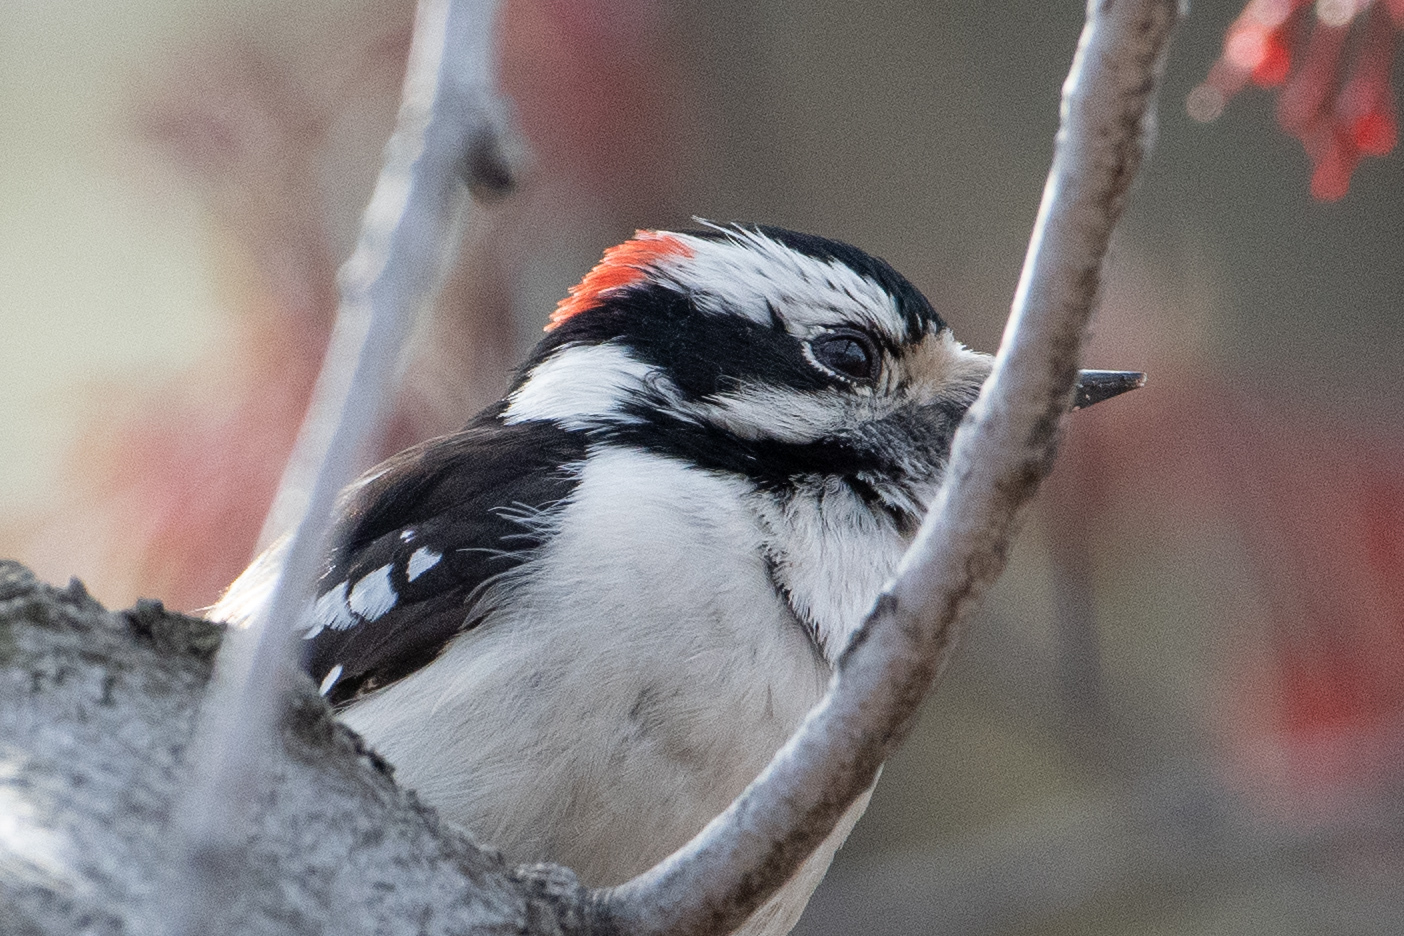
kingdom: Animalia
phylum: Chordata
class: Aves
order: Piciformes
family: Picidae
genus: Dryobates
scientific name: Dryobates pubescens
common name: Downy woodpecker
